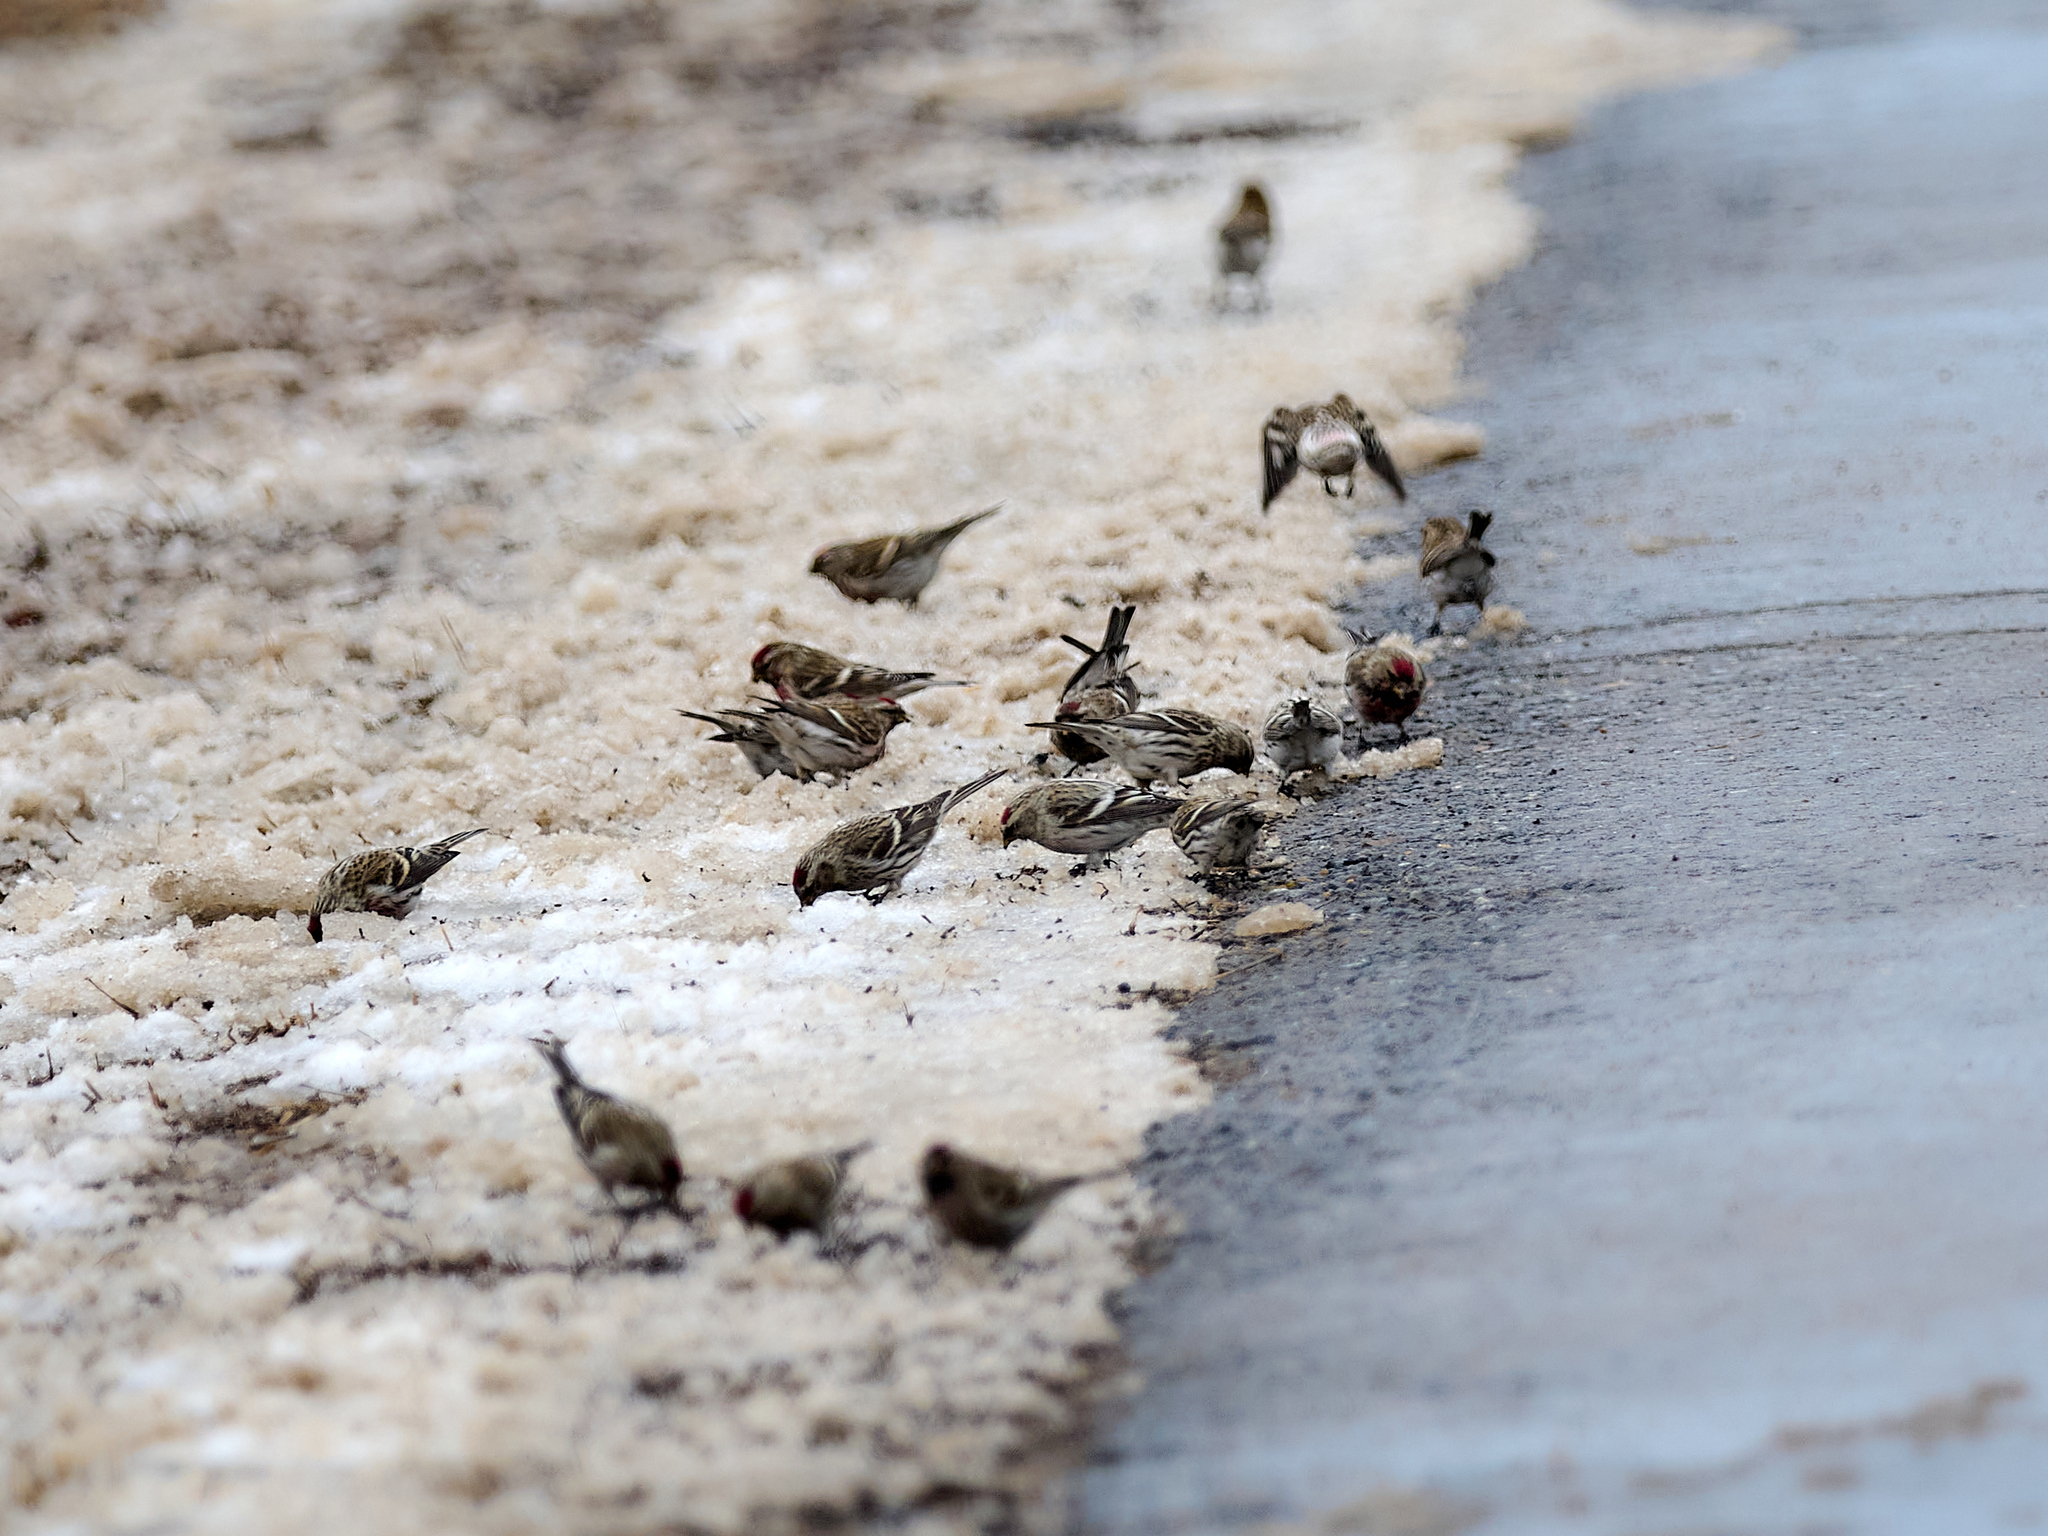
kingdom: Animalia
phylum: Chordata
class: Aves
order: Passeriformes
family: Fringillidae
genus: Acanthis
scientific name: Acanthis flammea
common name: Common redpoll
